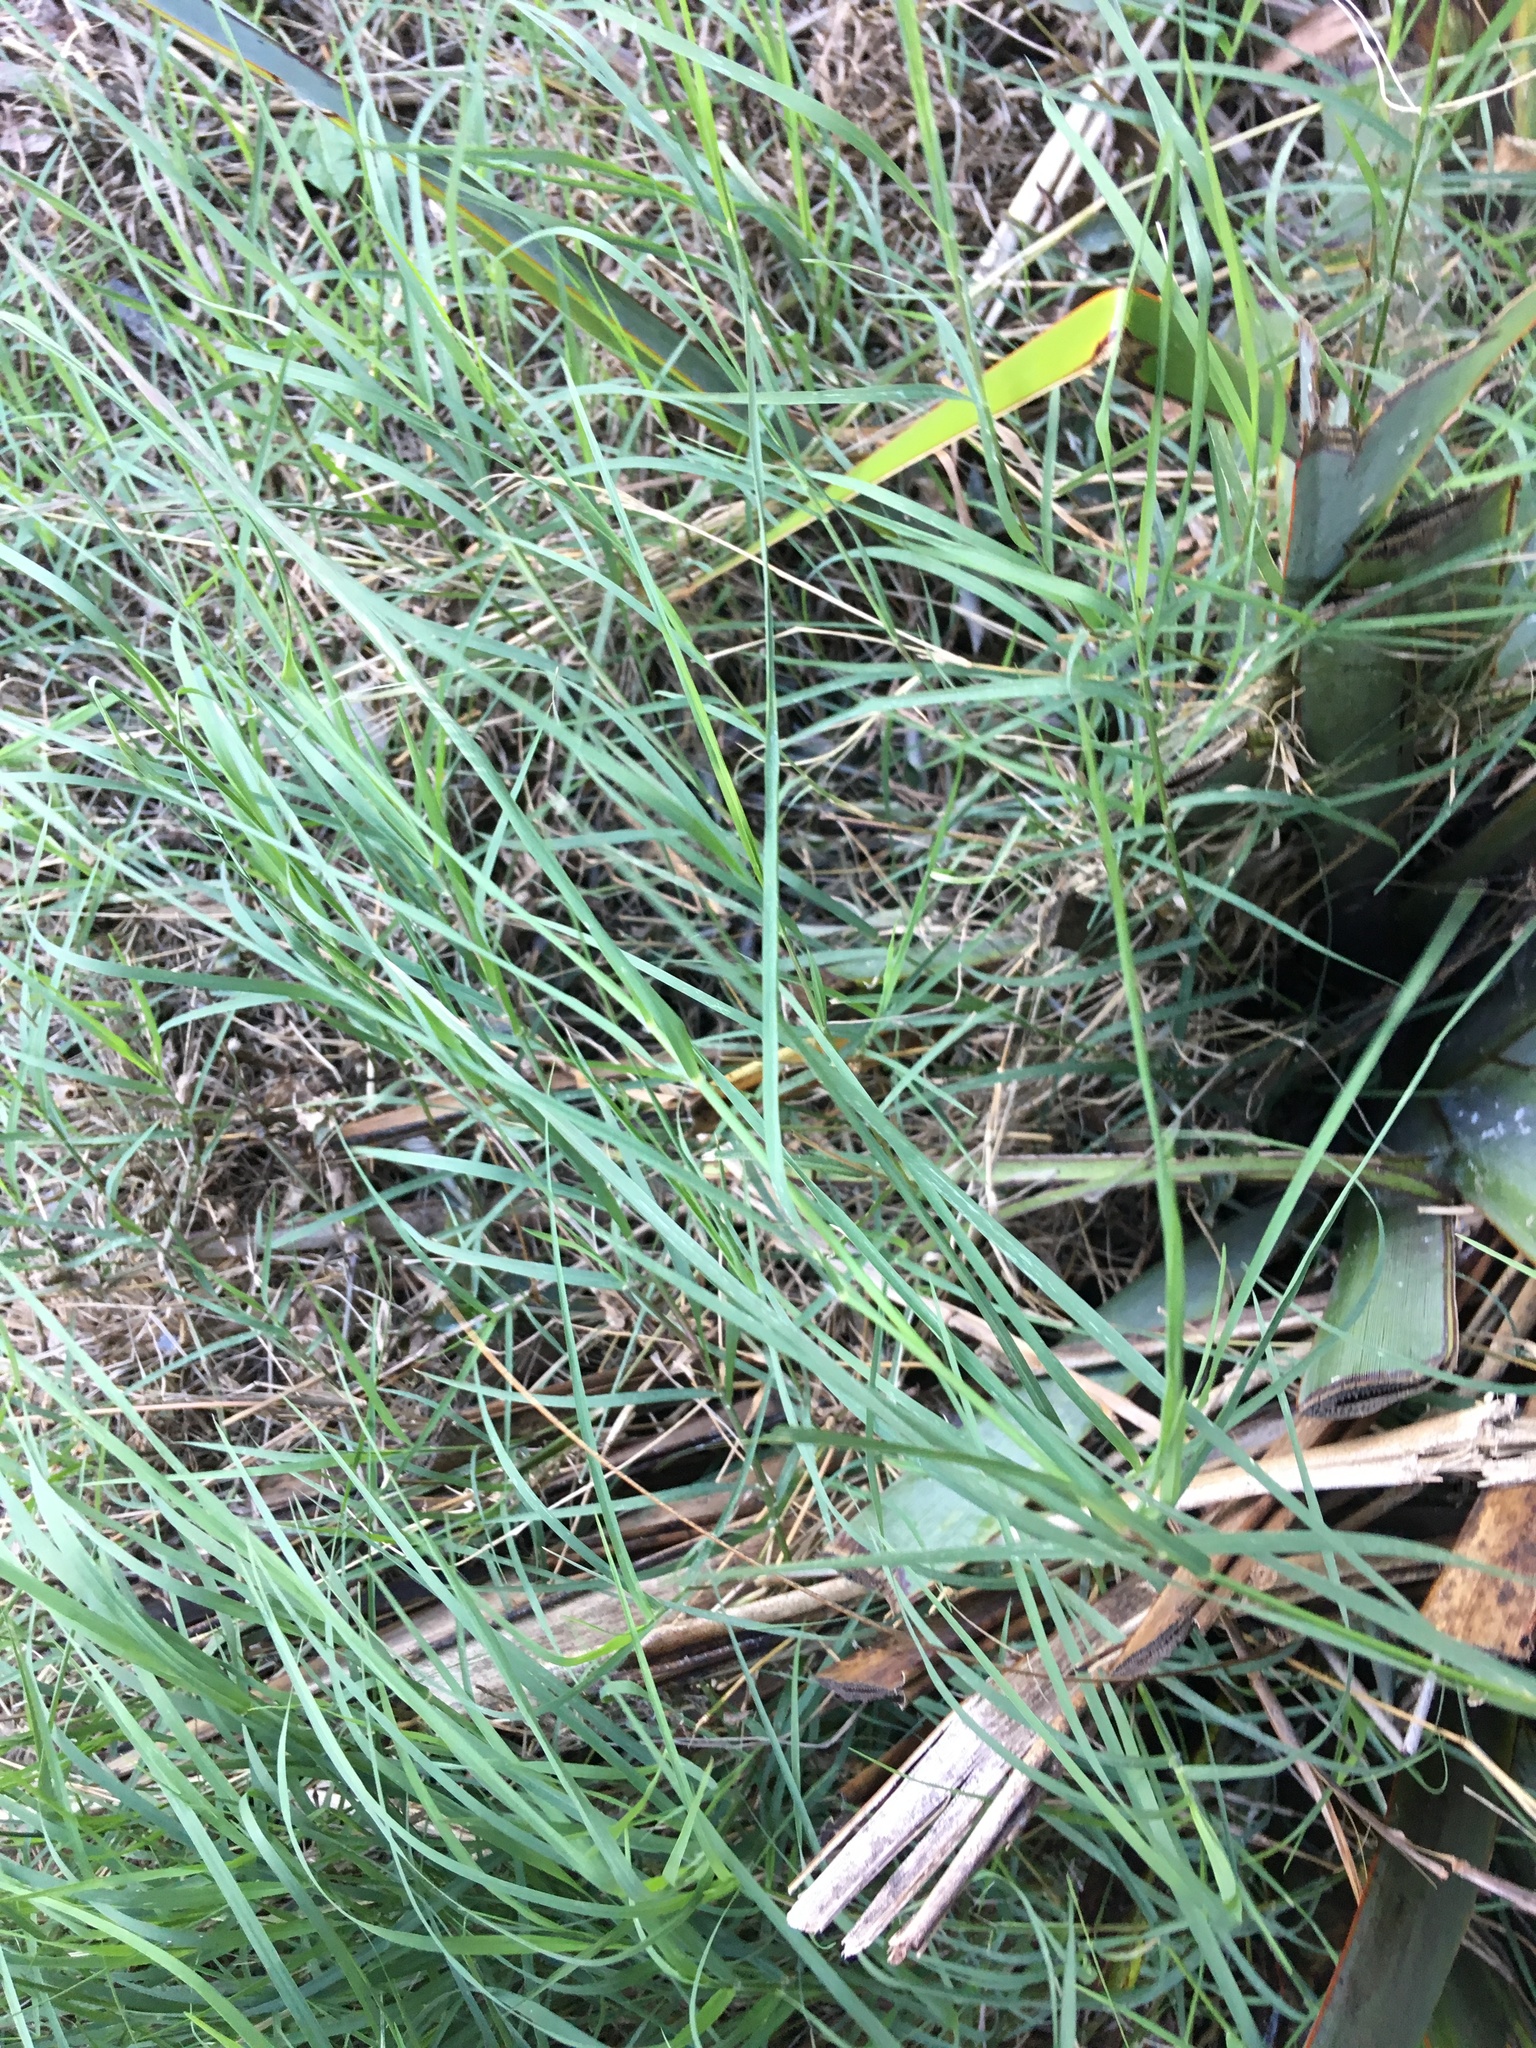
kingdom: Plantae
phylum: Tracheophyta
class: Liliopsida
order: Poales
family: Poaceae
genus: Cynodon
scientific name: Cynodon dactylon
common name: Bermuda grass
